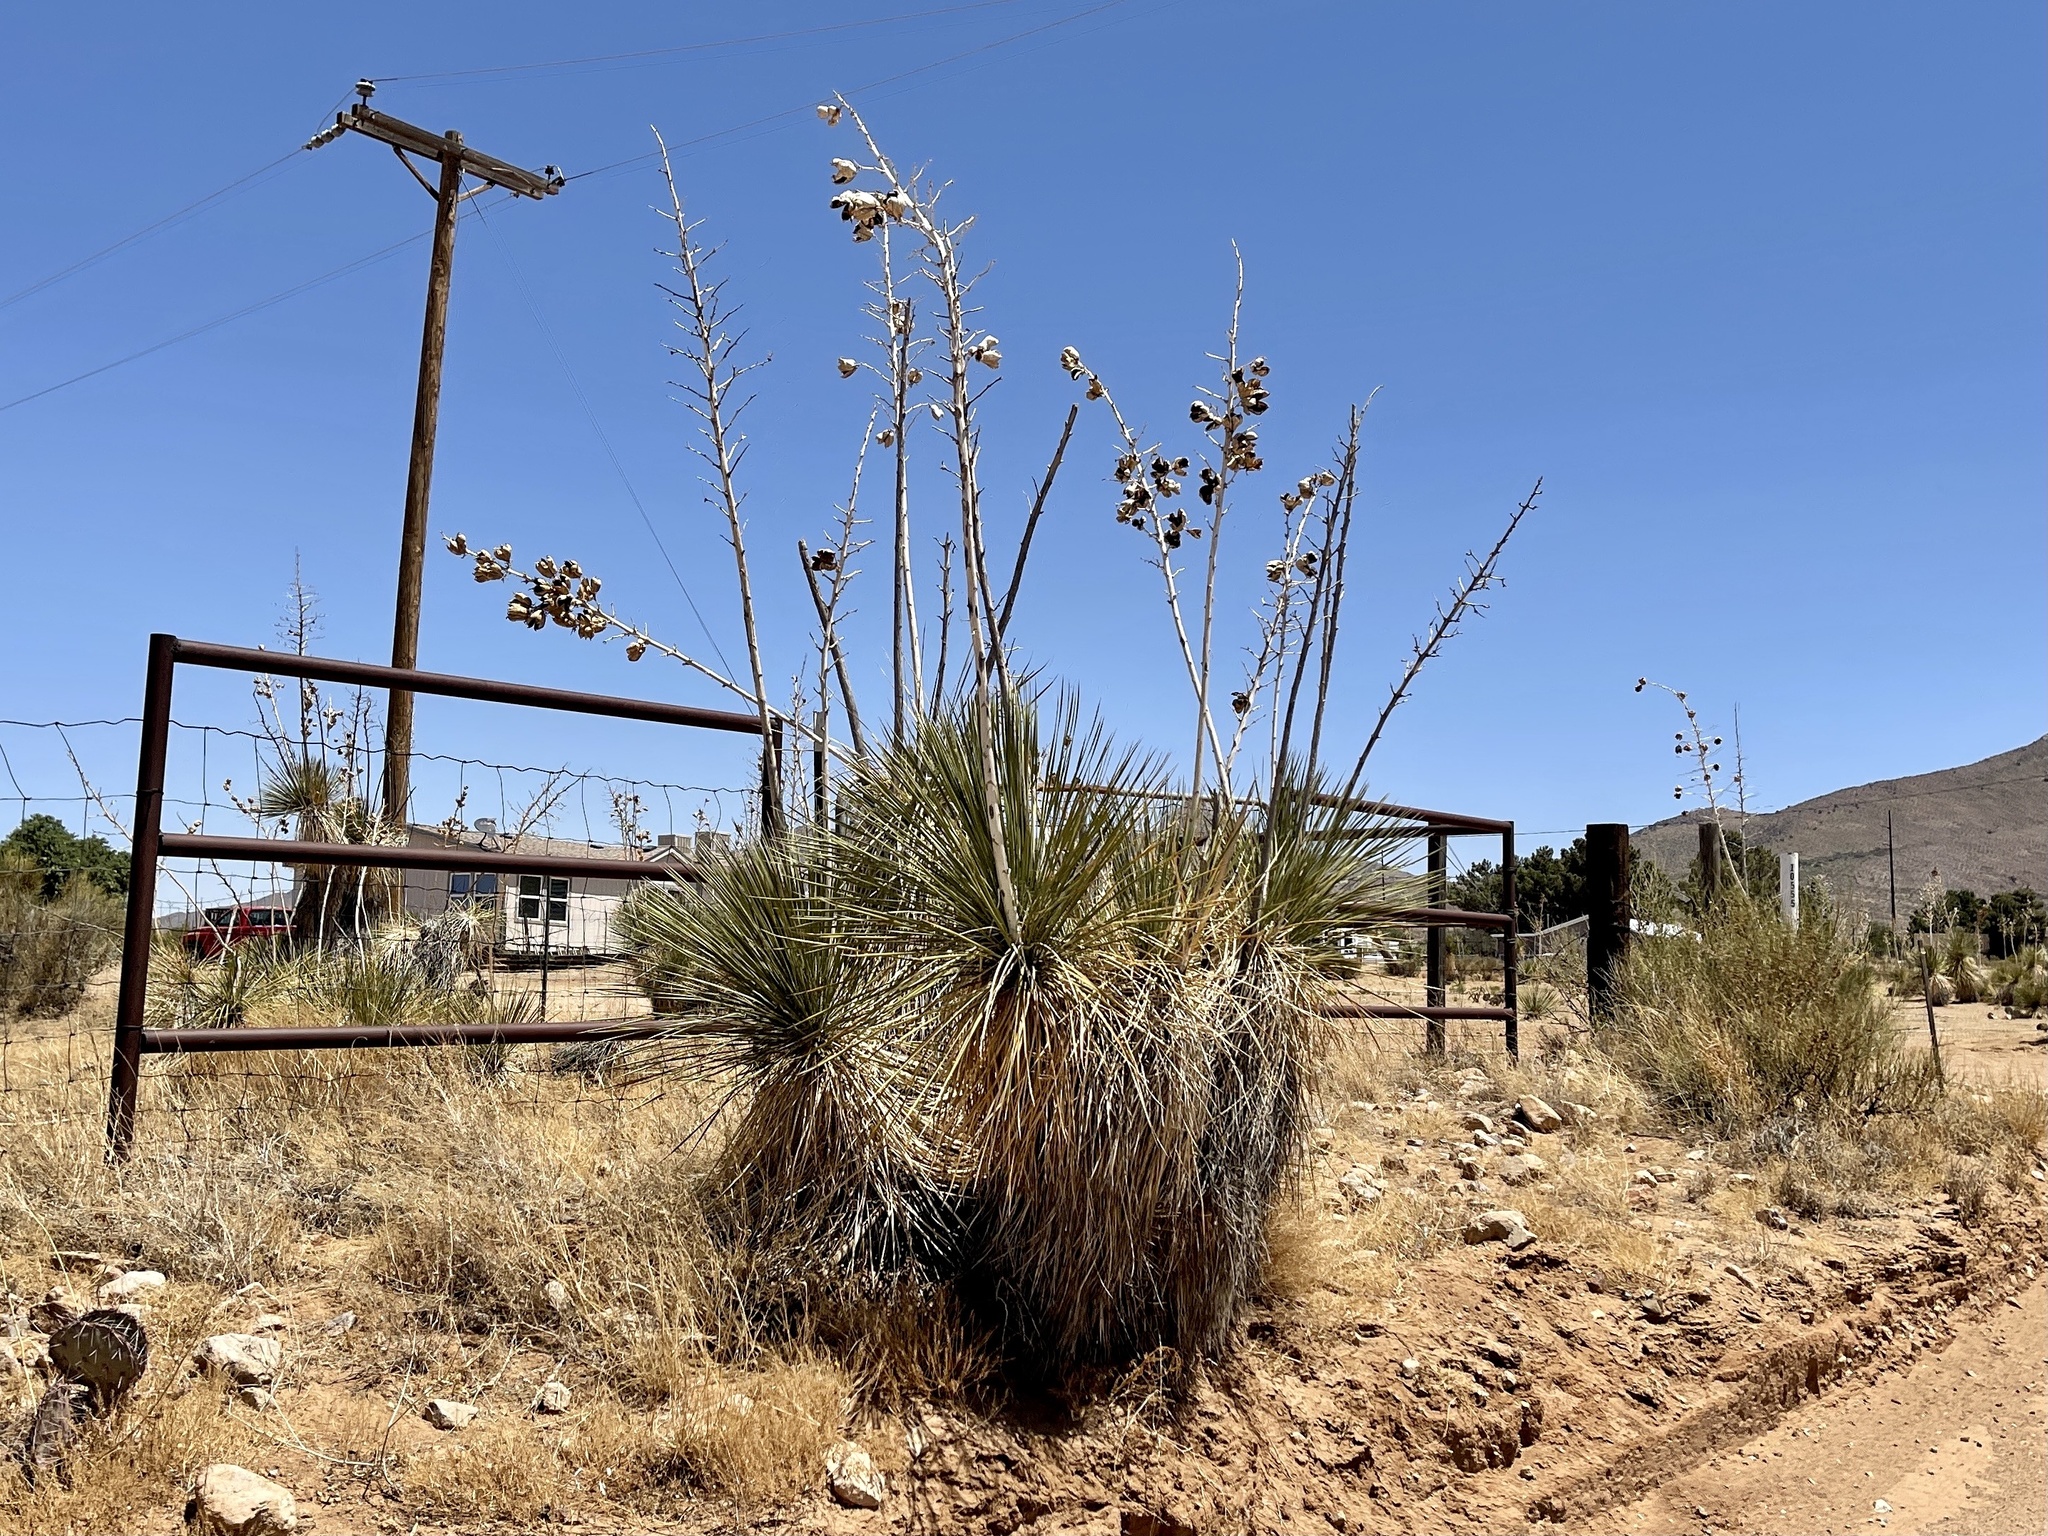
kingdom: Plantae
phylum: Tracheophyta
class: Liliopsida
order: Asparagales
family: Asparagaceae
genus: Yucca
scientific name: Yucca elata
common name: Palmella
